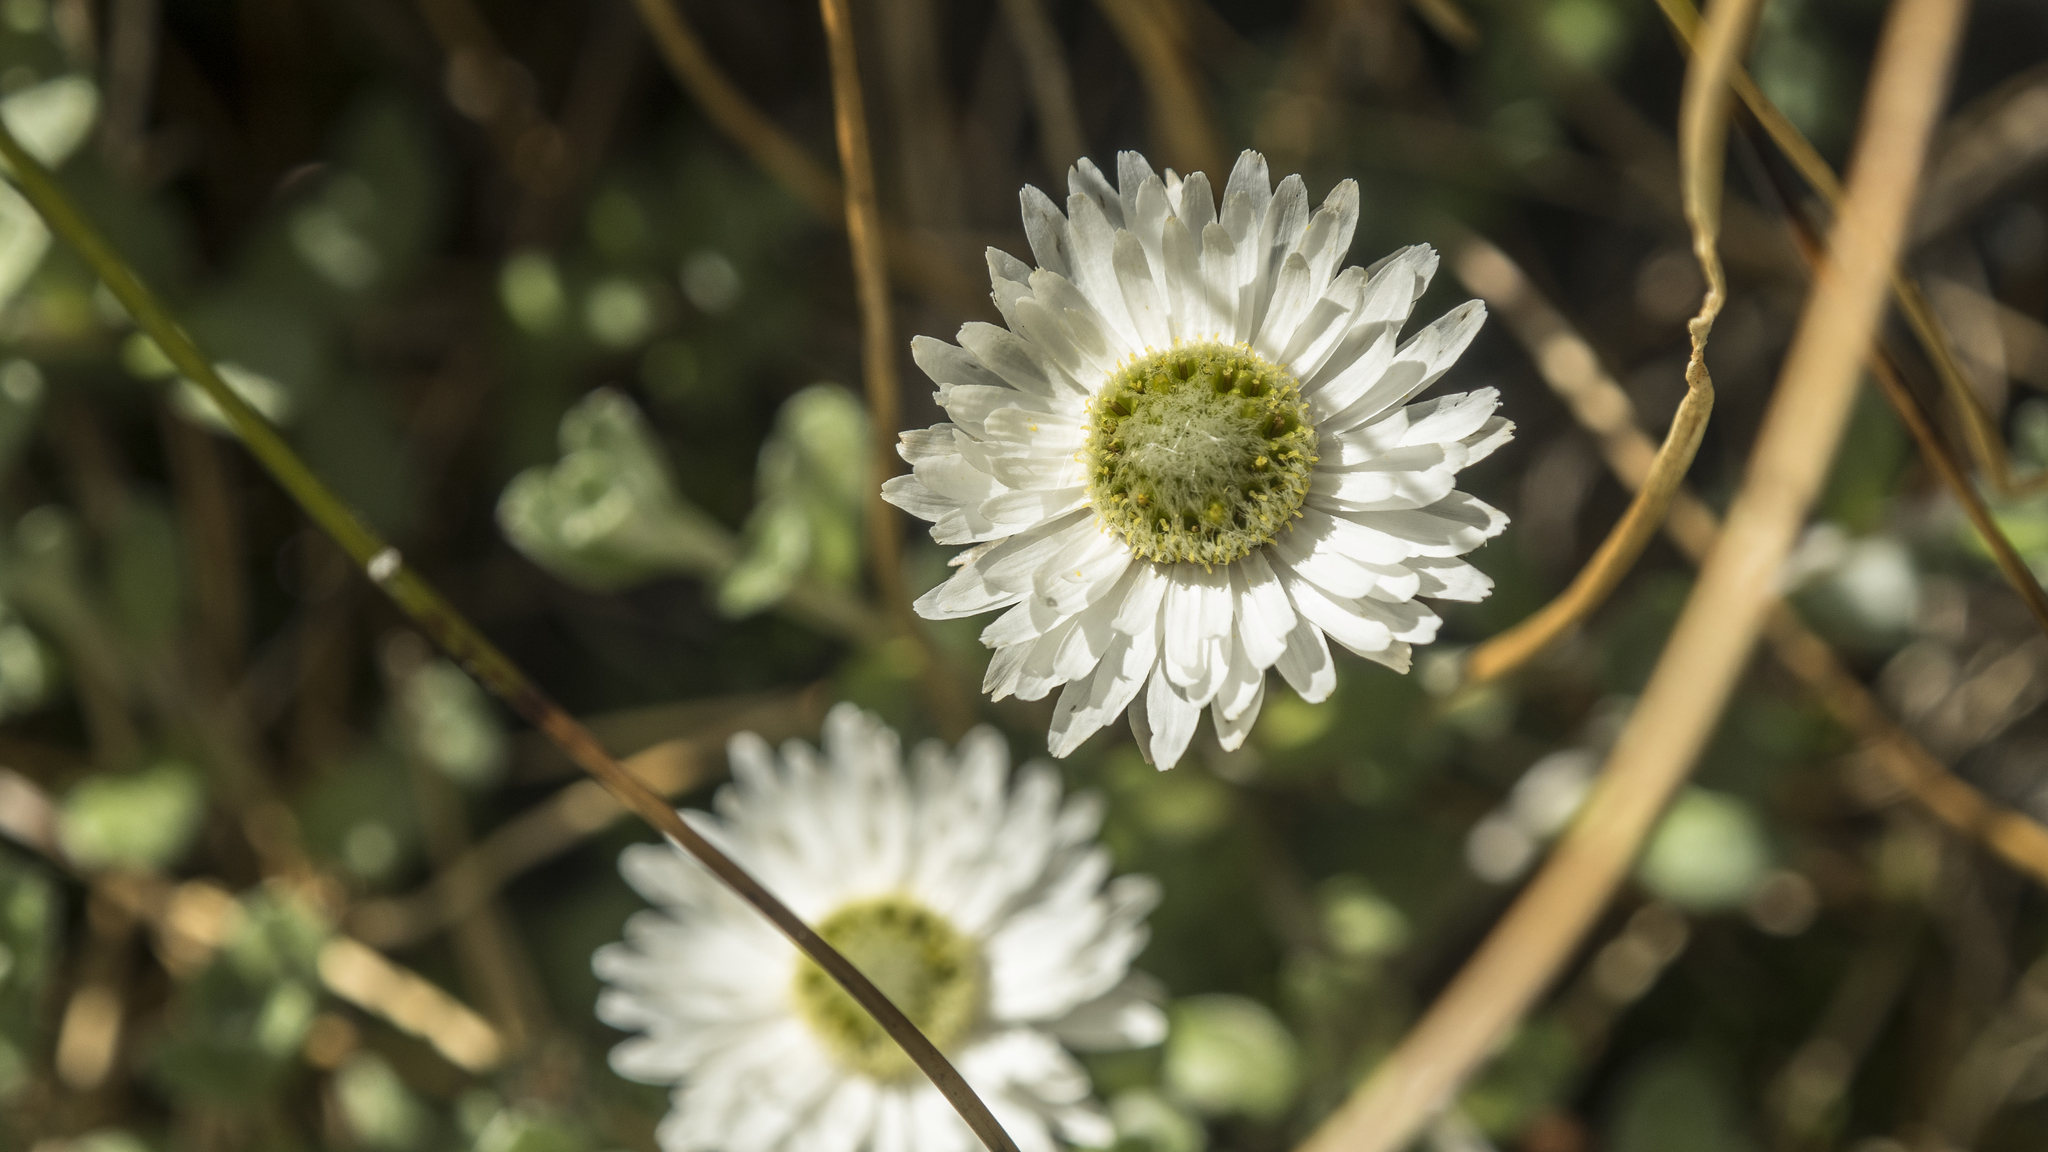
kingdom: Plantae
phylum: Tracheophyta
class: Magnoliopsida
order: Asterales
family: Asteraceae
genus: Anaphalioides
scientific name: Anaphalioides bellidioides
